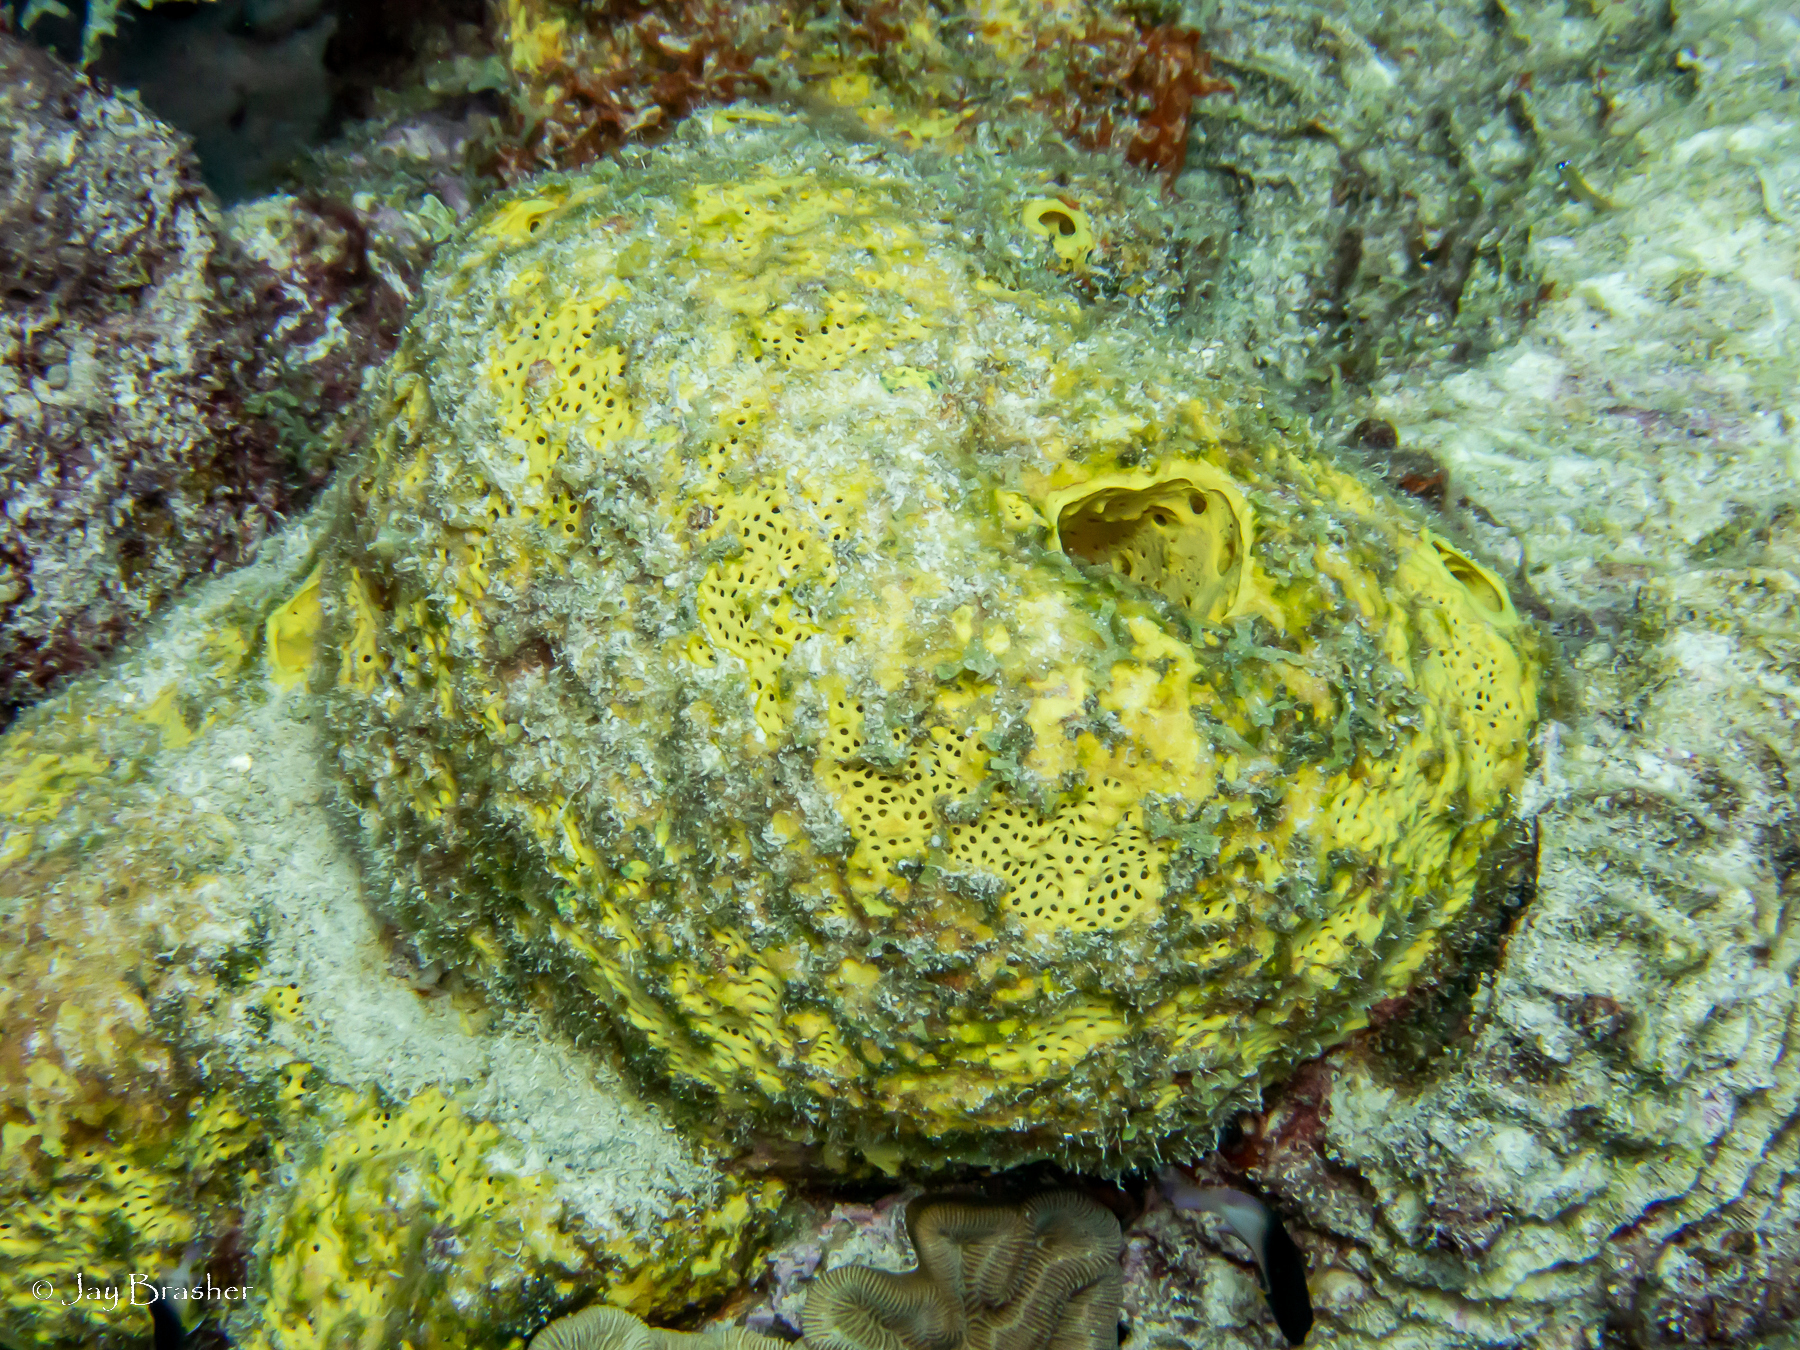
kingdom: Animalia
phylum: Porifera
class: Demospongiae
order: Verongiida
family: Aplysinidae
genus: Aiolochroia
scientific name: Aiolochroia crassa
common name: Branching tube sponge
